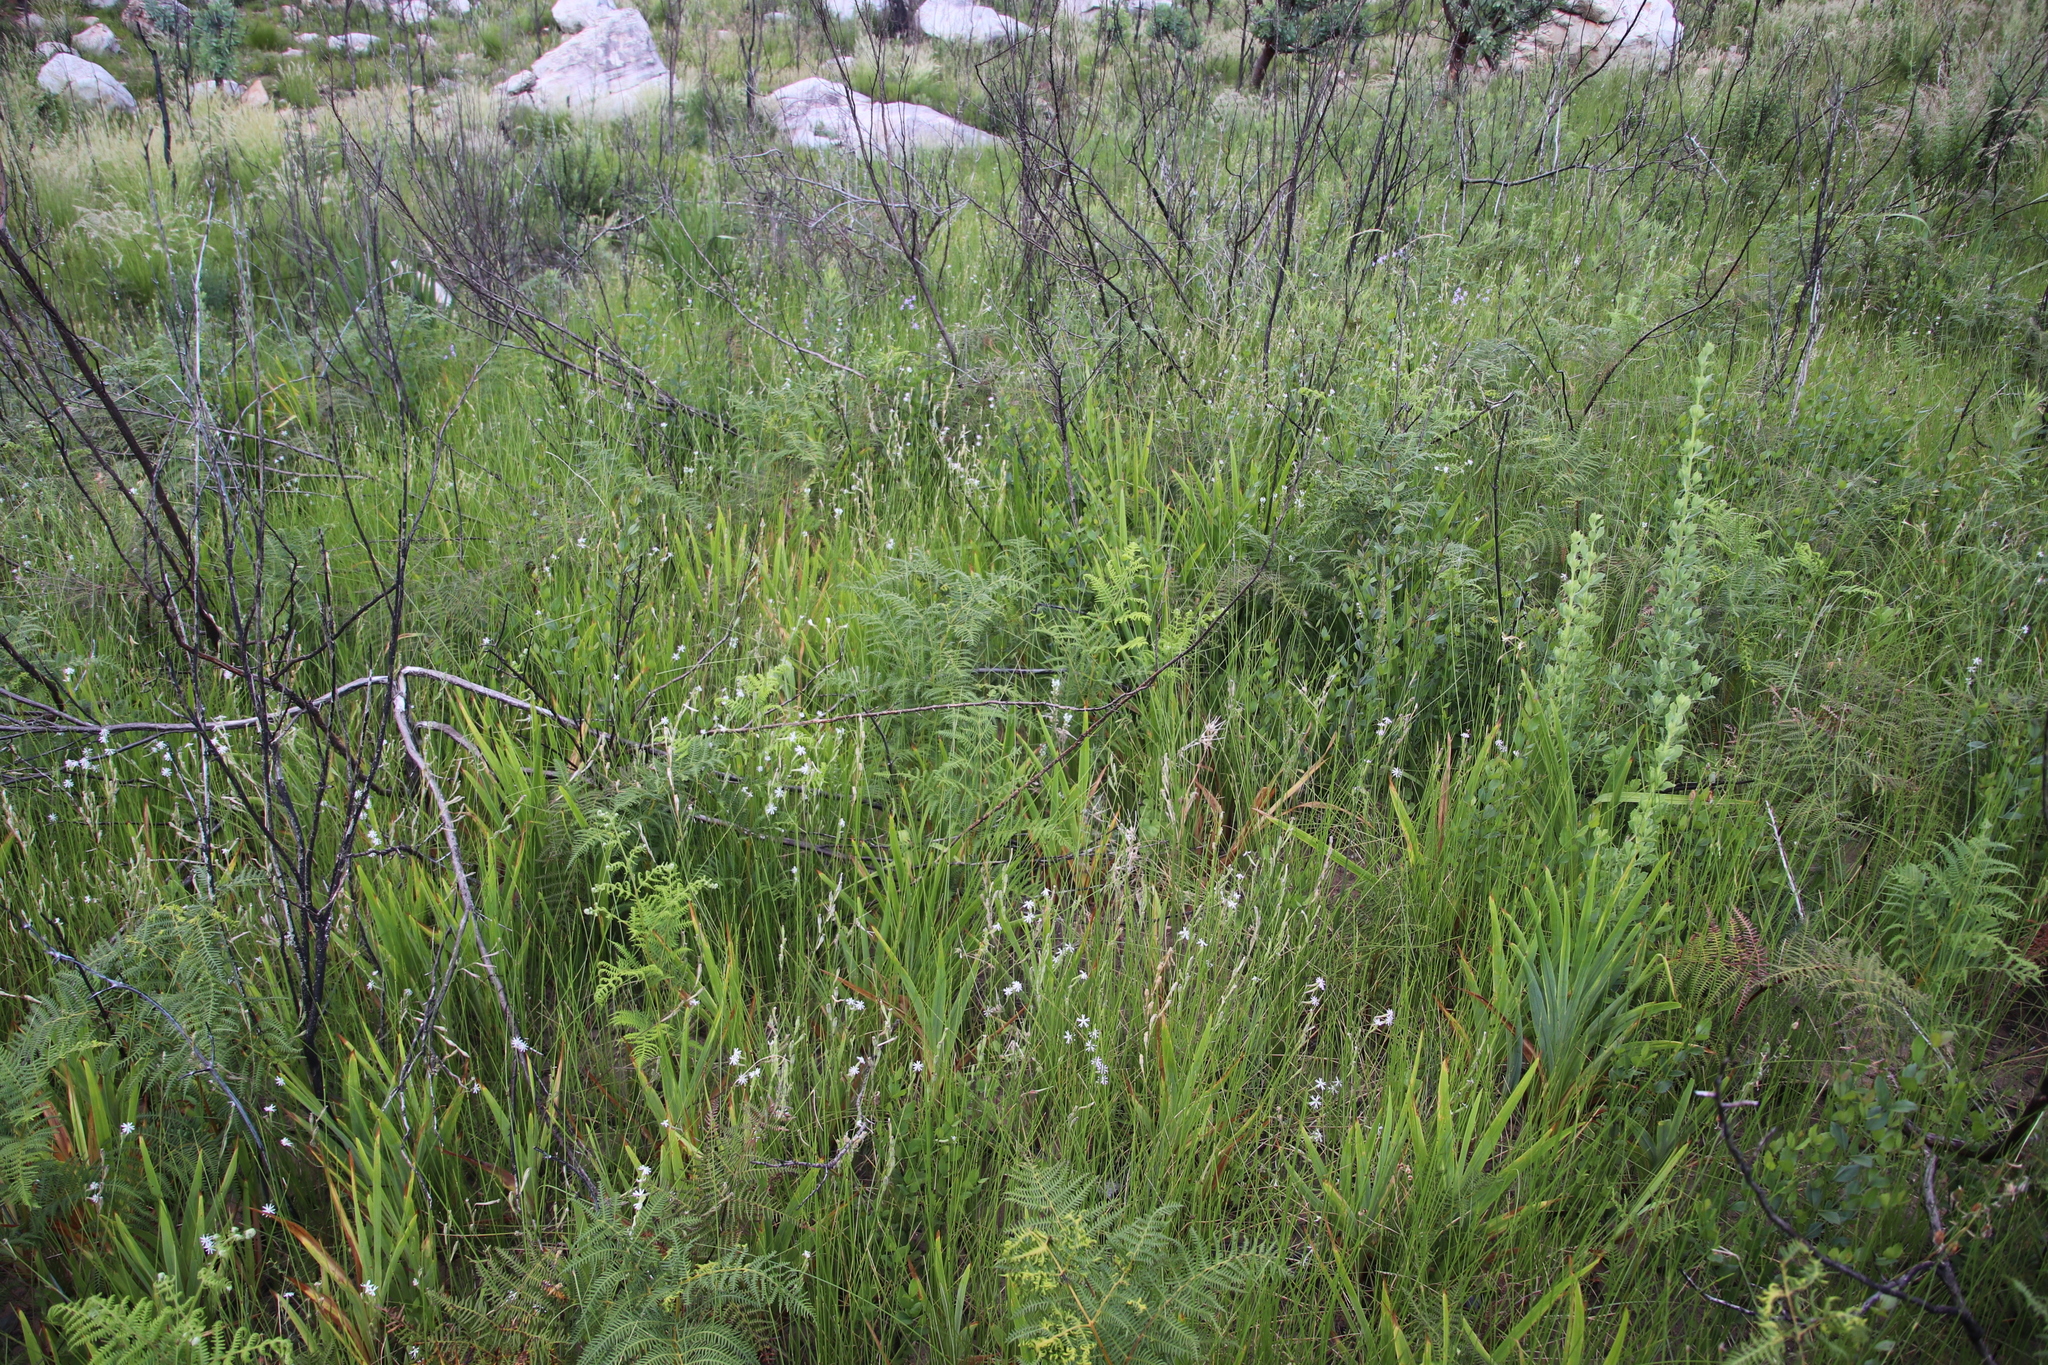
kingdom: Plantae
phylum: Tracheophyta
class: Polypodiopsida
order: Polypodiales
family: Dennstaedtiaceae
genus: Pteridium
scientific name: Pteridium aquilinum
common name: Bracken
